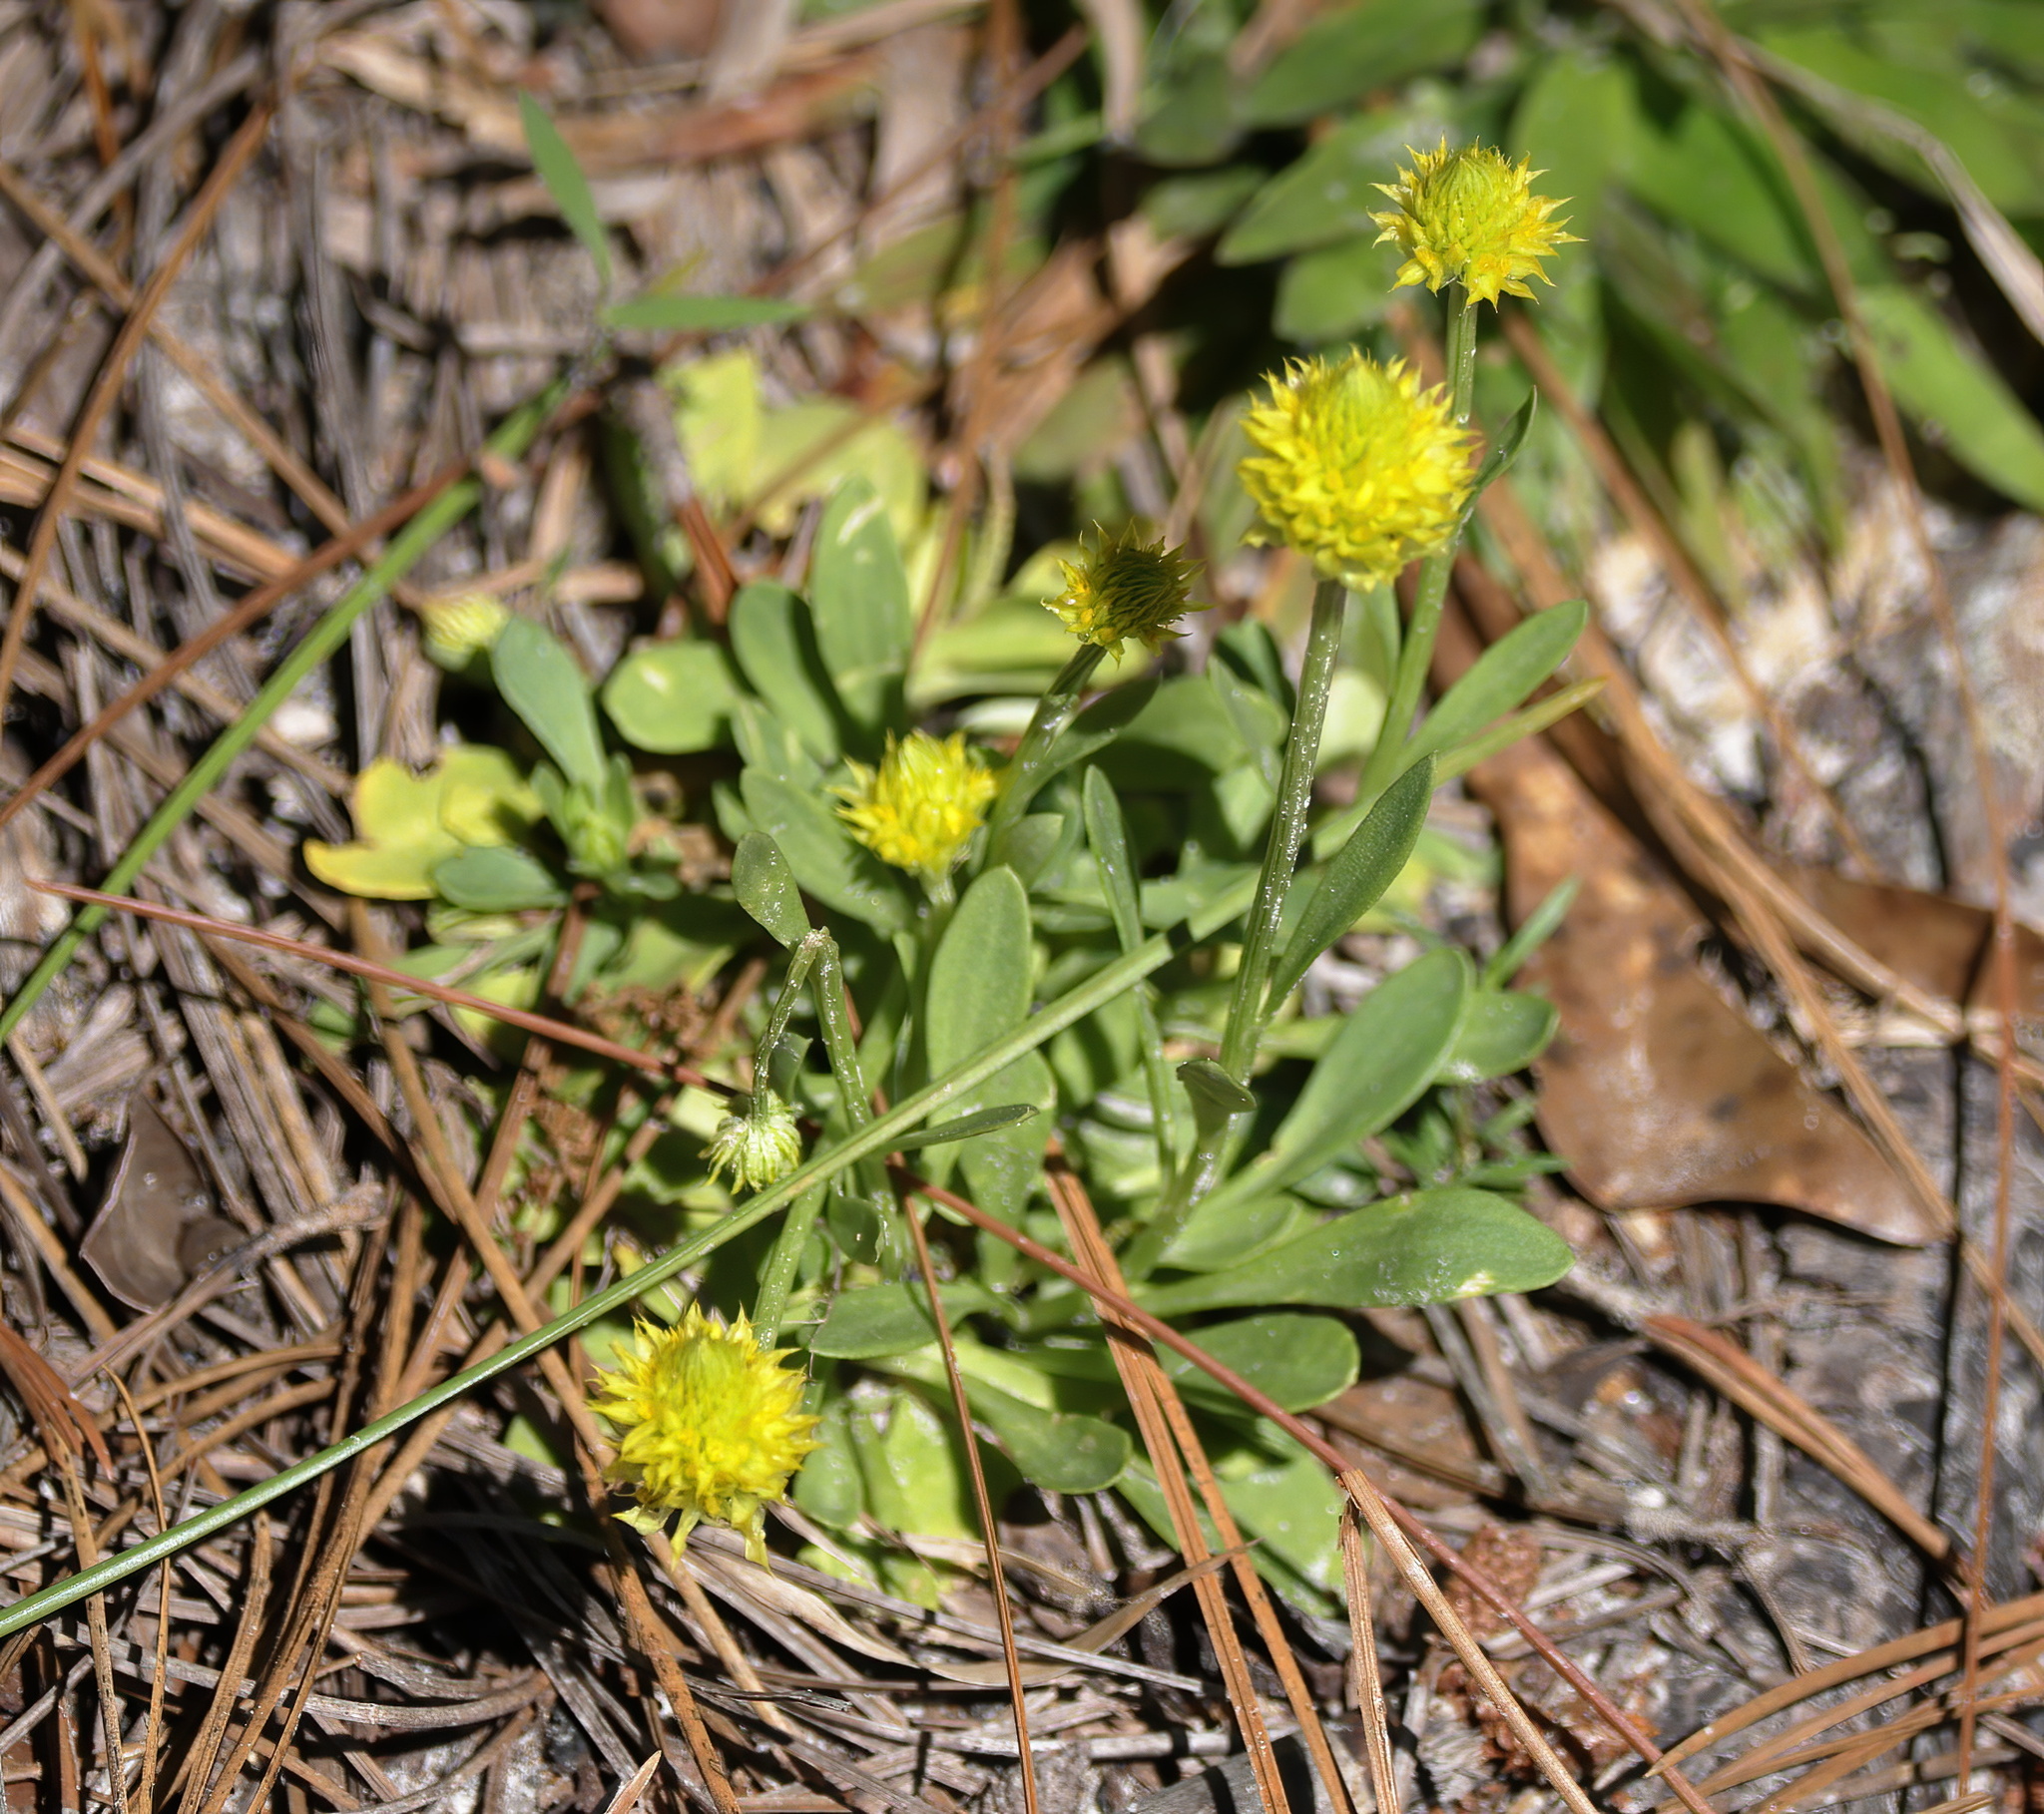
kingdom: Plantae
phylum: Tracheophyta
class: Magnoliopsida
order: Fabales
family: Polygalaceae
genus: Polygala
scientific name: Polygala nana
